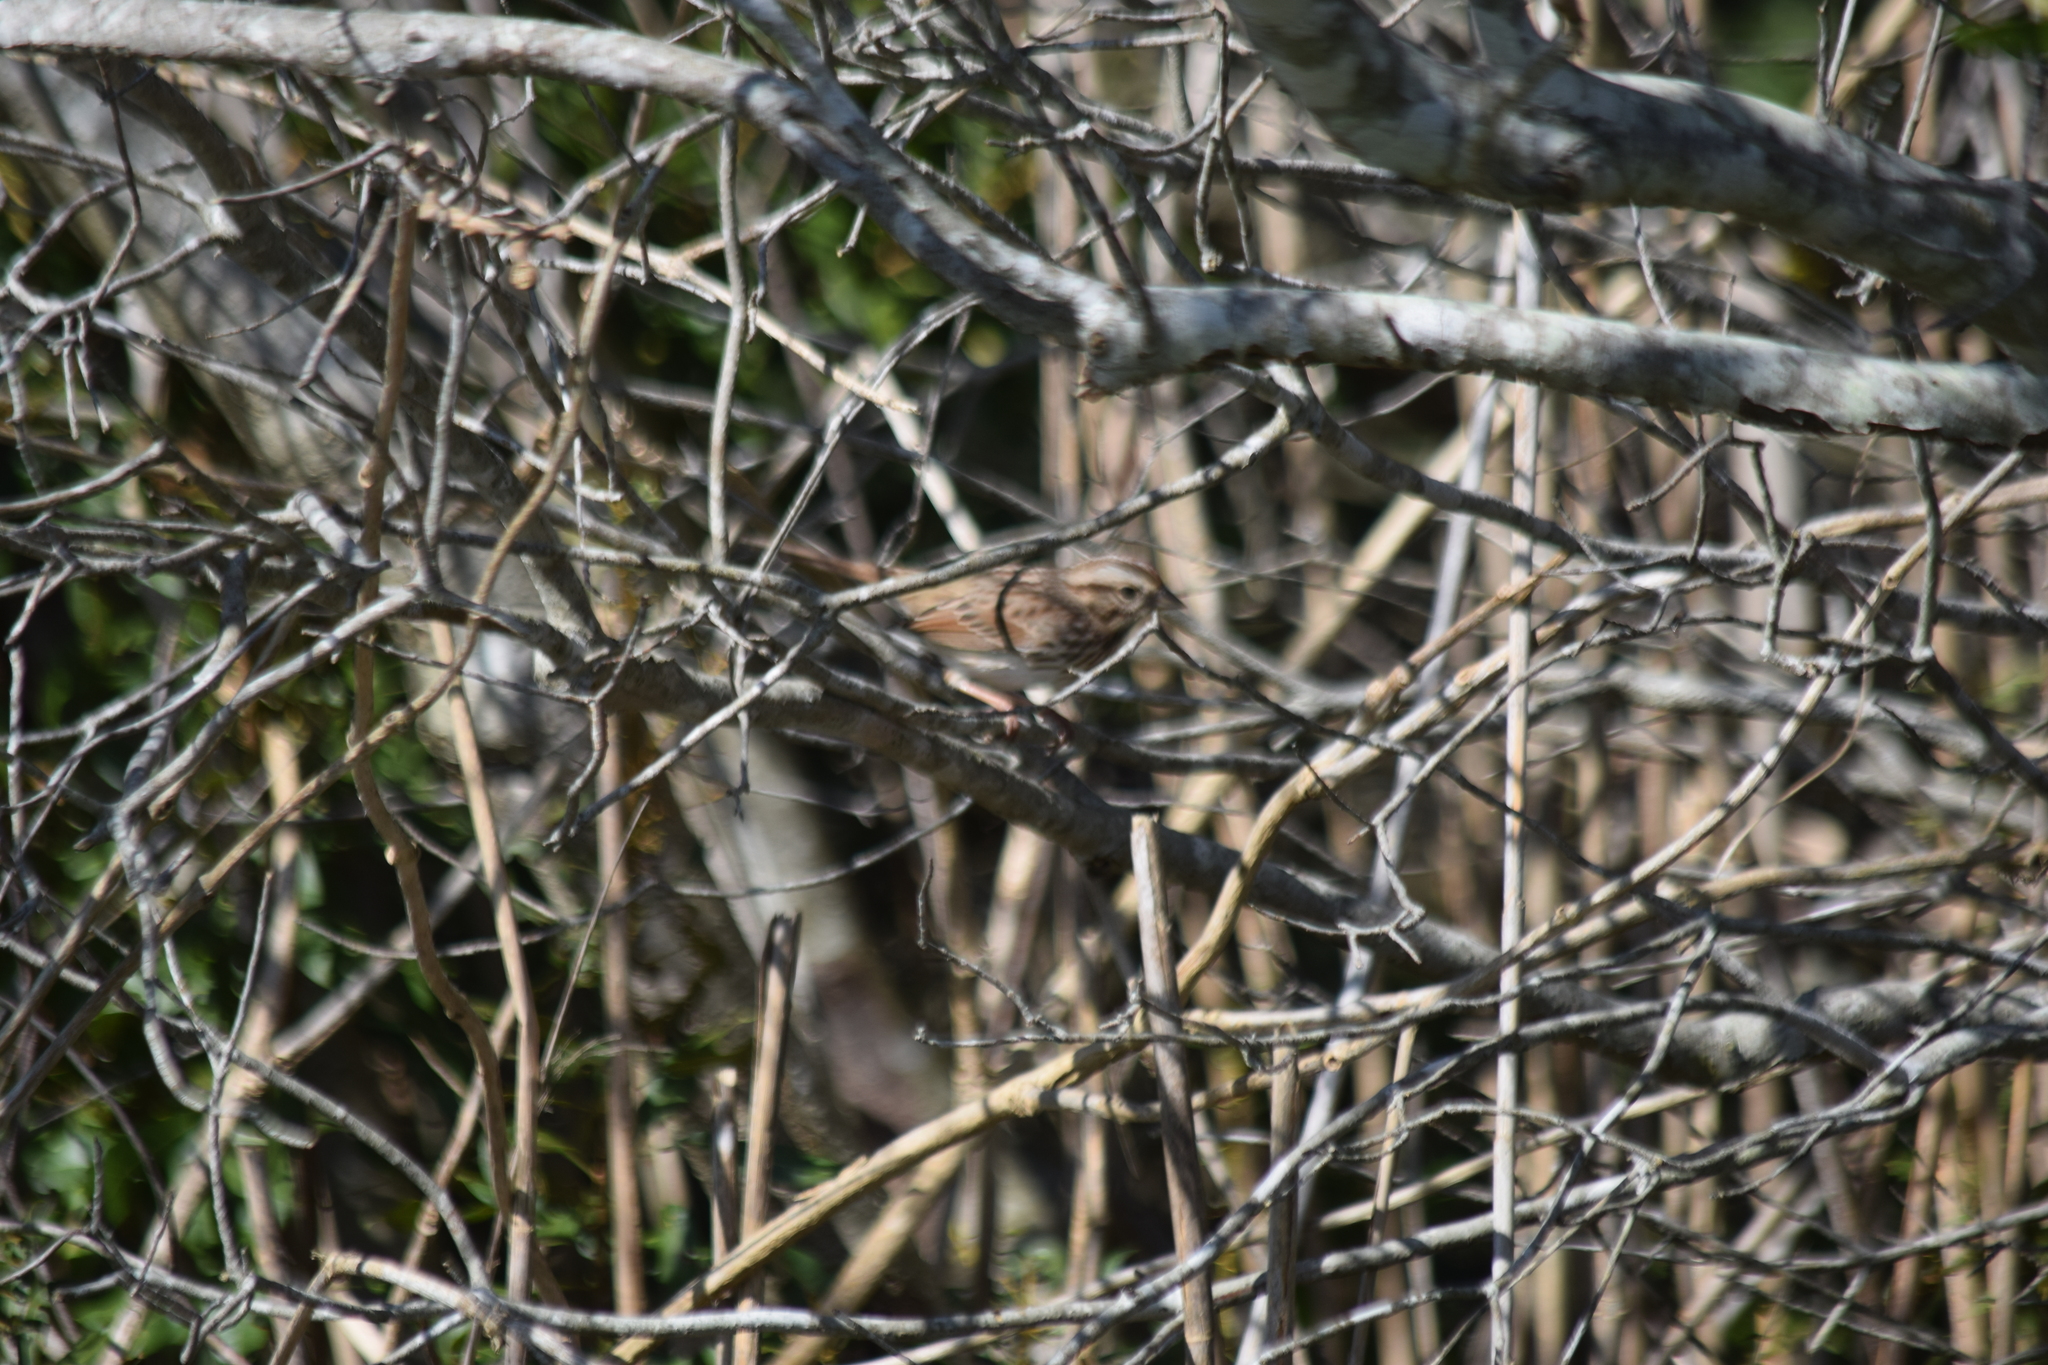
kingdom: Animalia
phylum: Chordata
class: Aves
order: Passeriformes
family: Passerellidae
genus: Melospiza
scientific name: Melospiza melodia
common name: Song sparrow
